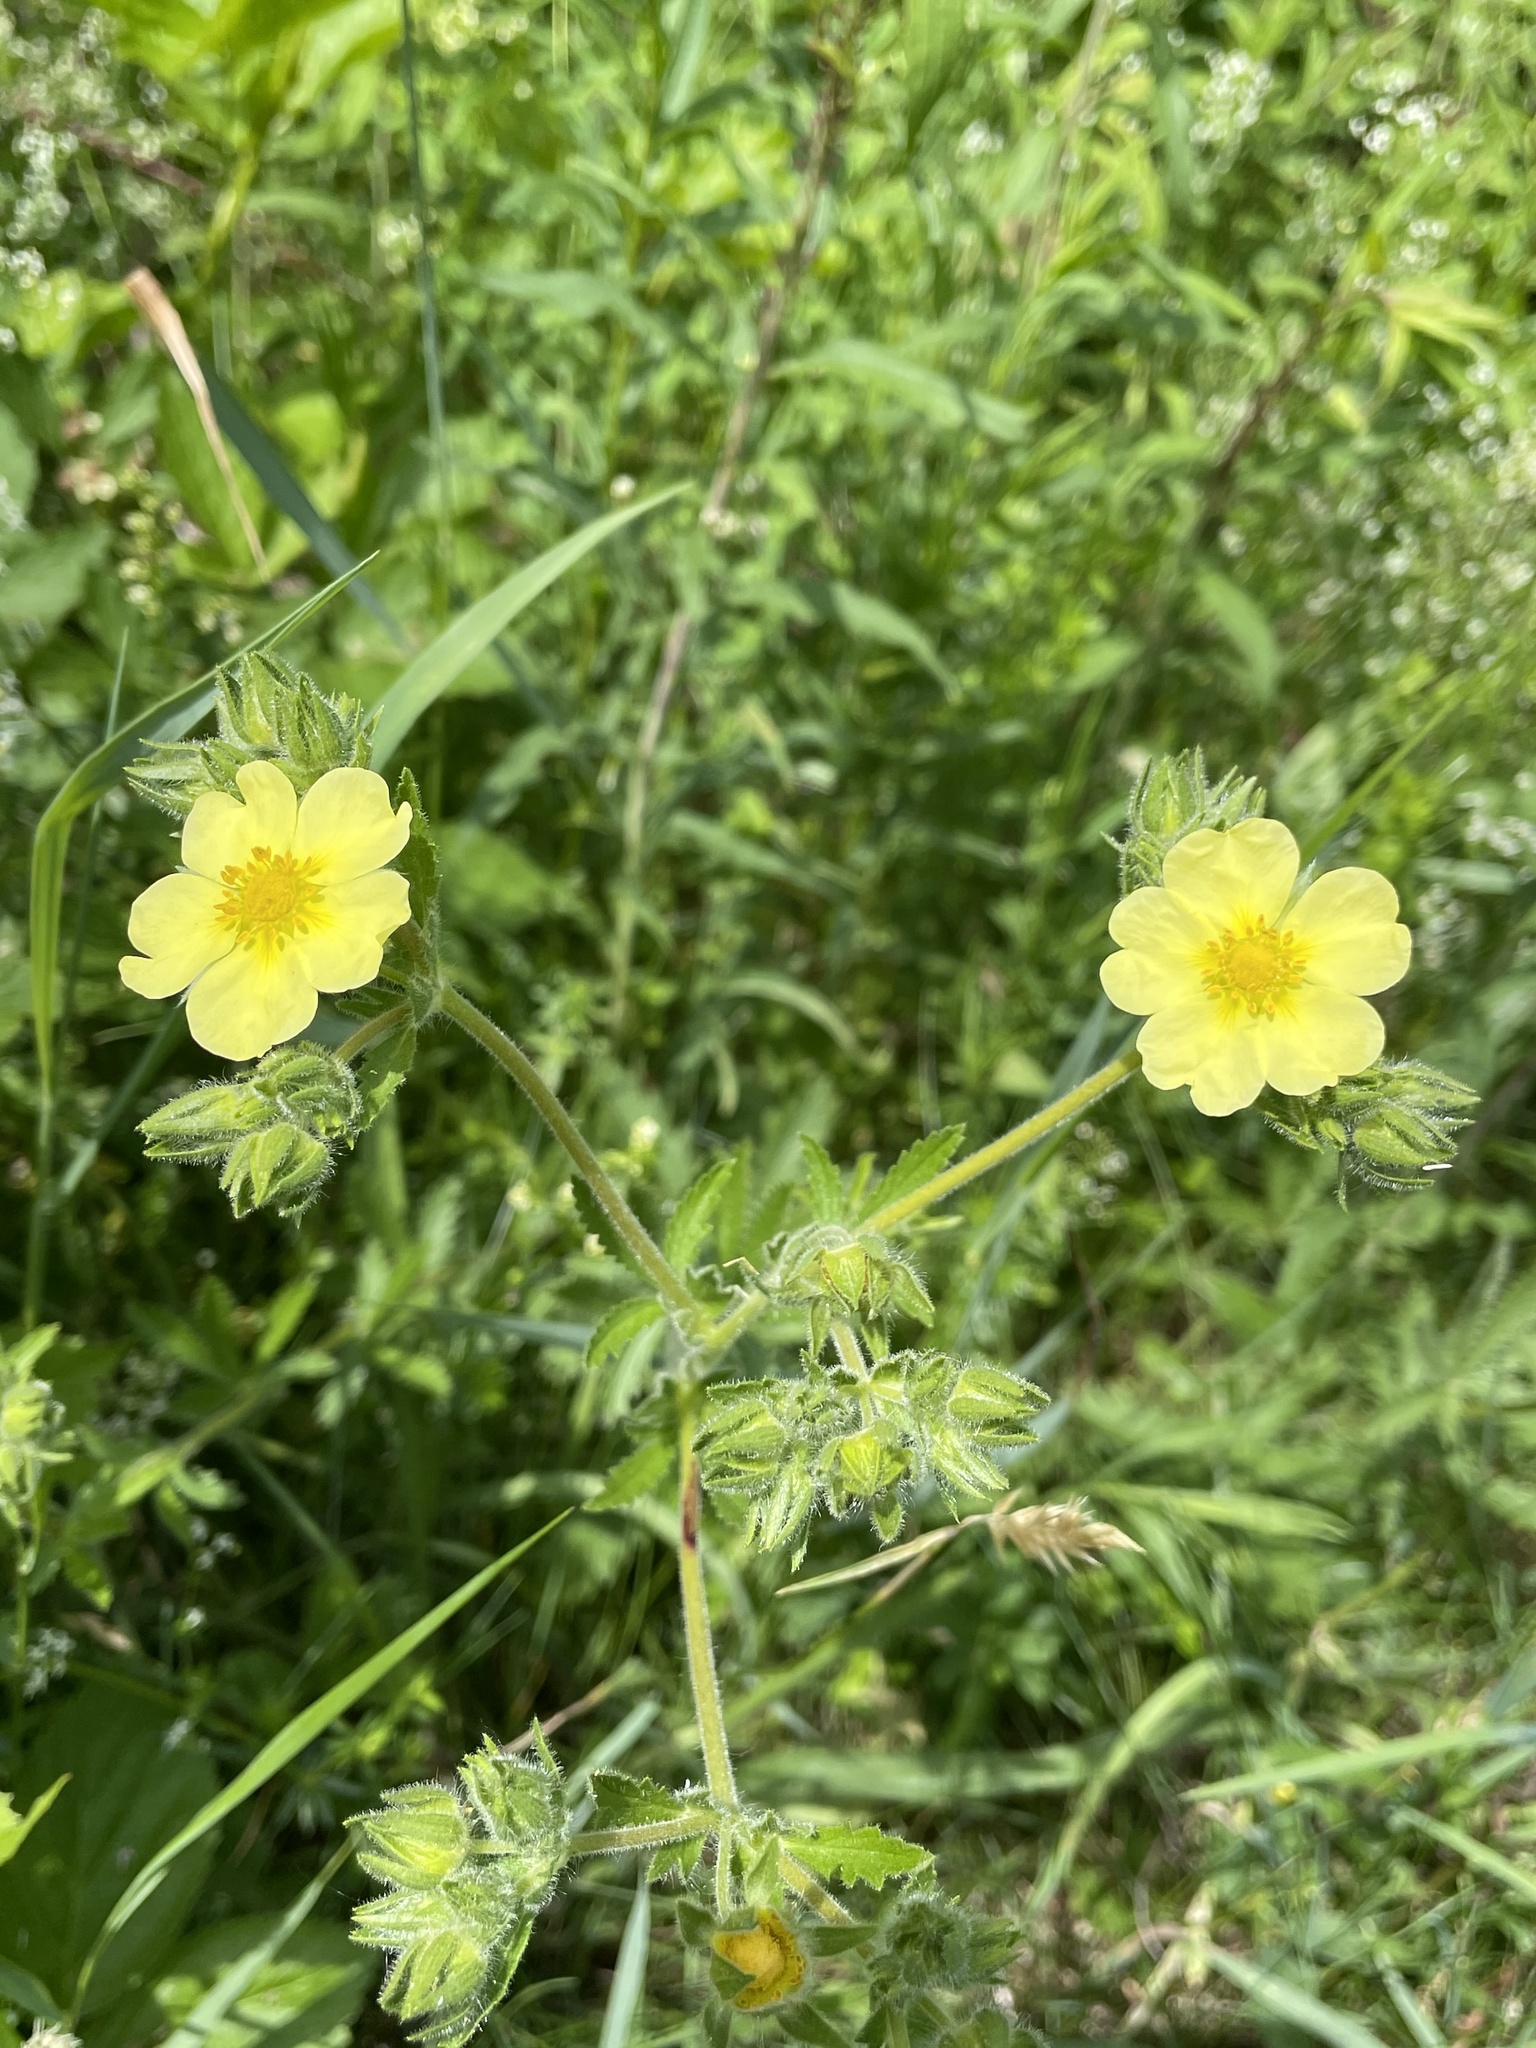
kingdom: Plantae
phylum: Tracheophyta
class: Magnoliopsida
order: Rosales
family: Rosaceae
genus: Potentilla
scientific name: Potentilla recta
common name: Sulphur cinquefoil
